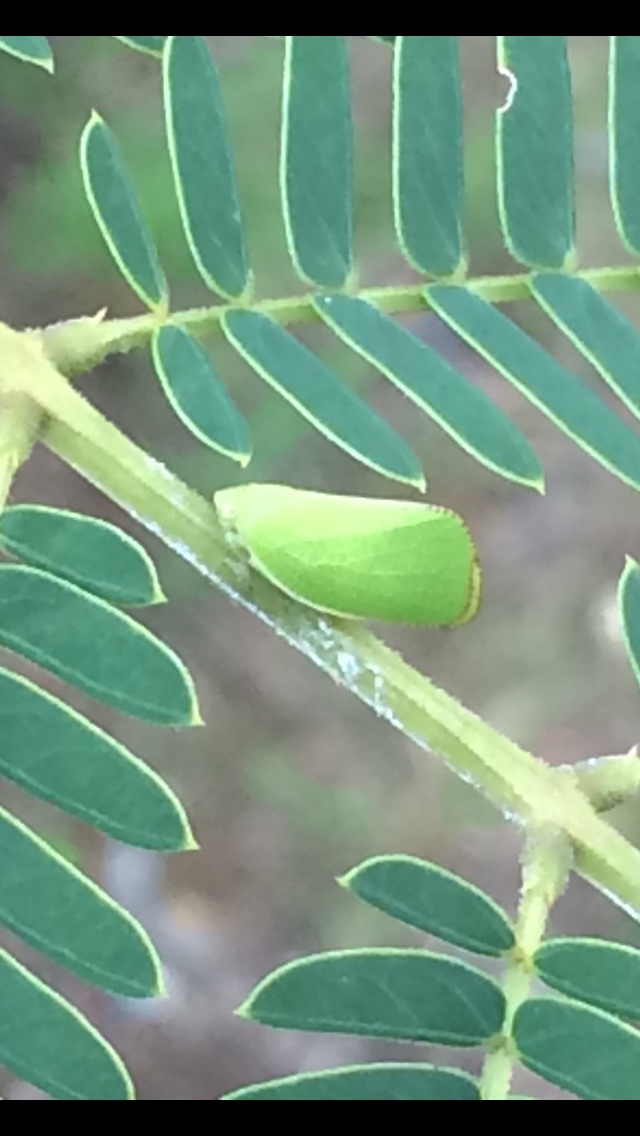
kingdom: Animalia
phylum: Arthropoda
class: Insecta
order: Hemiptera
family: Acanaloniidae
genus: Acanalonia
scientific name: Acanalonia conica
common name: Green cone-headed planthopper
